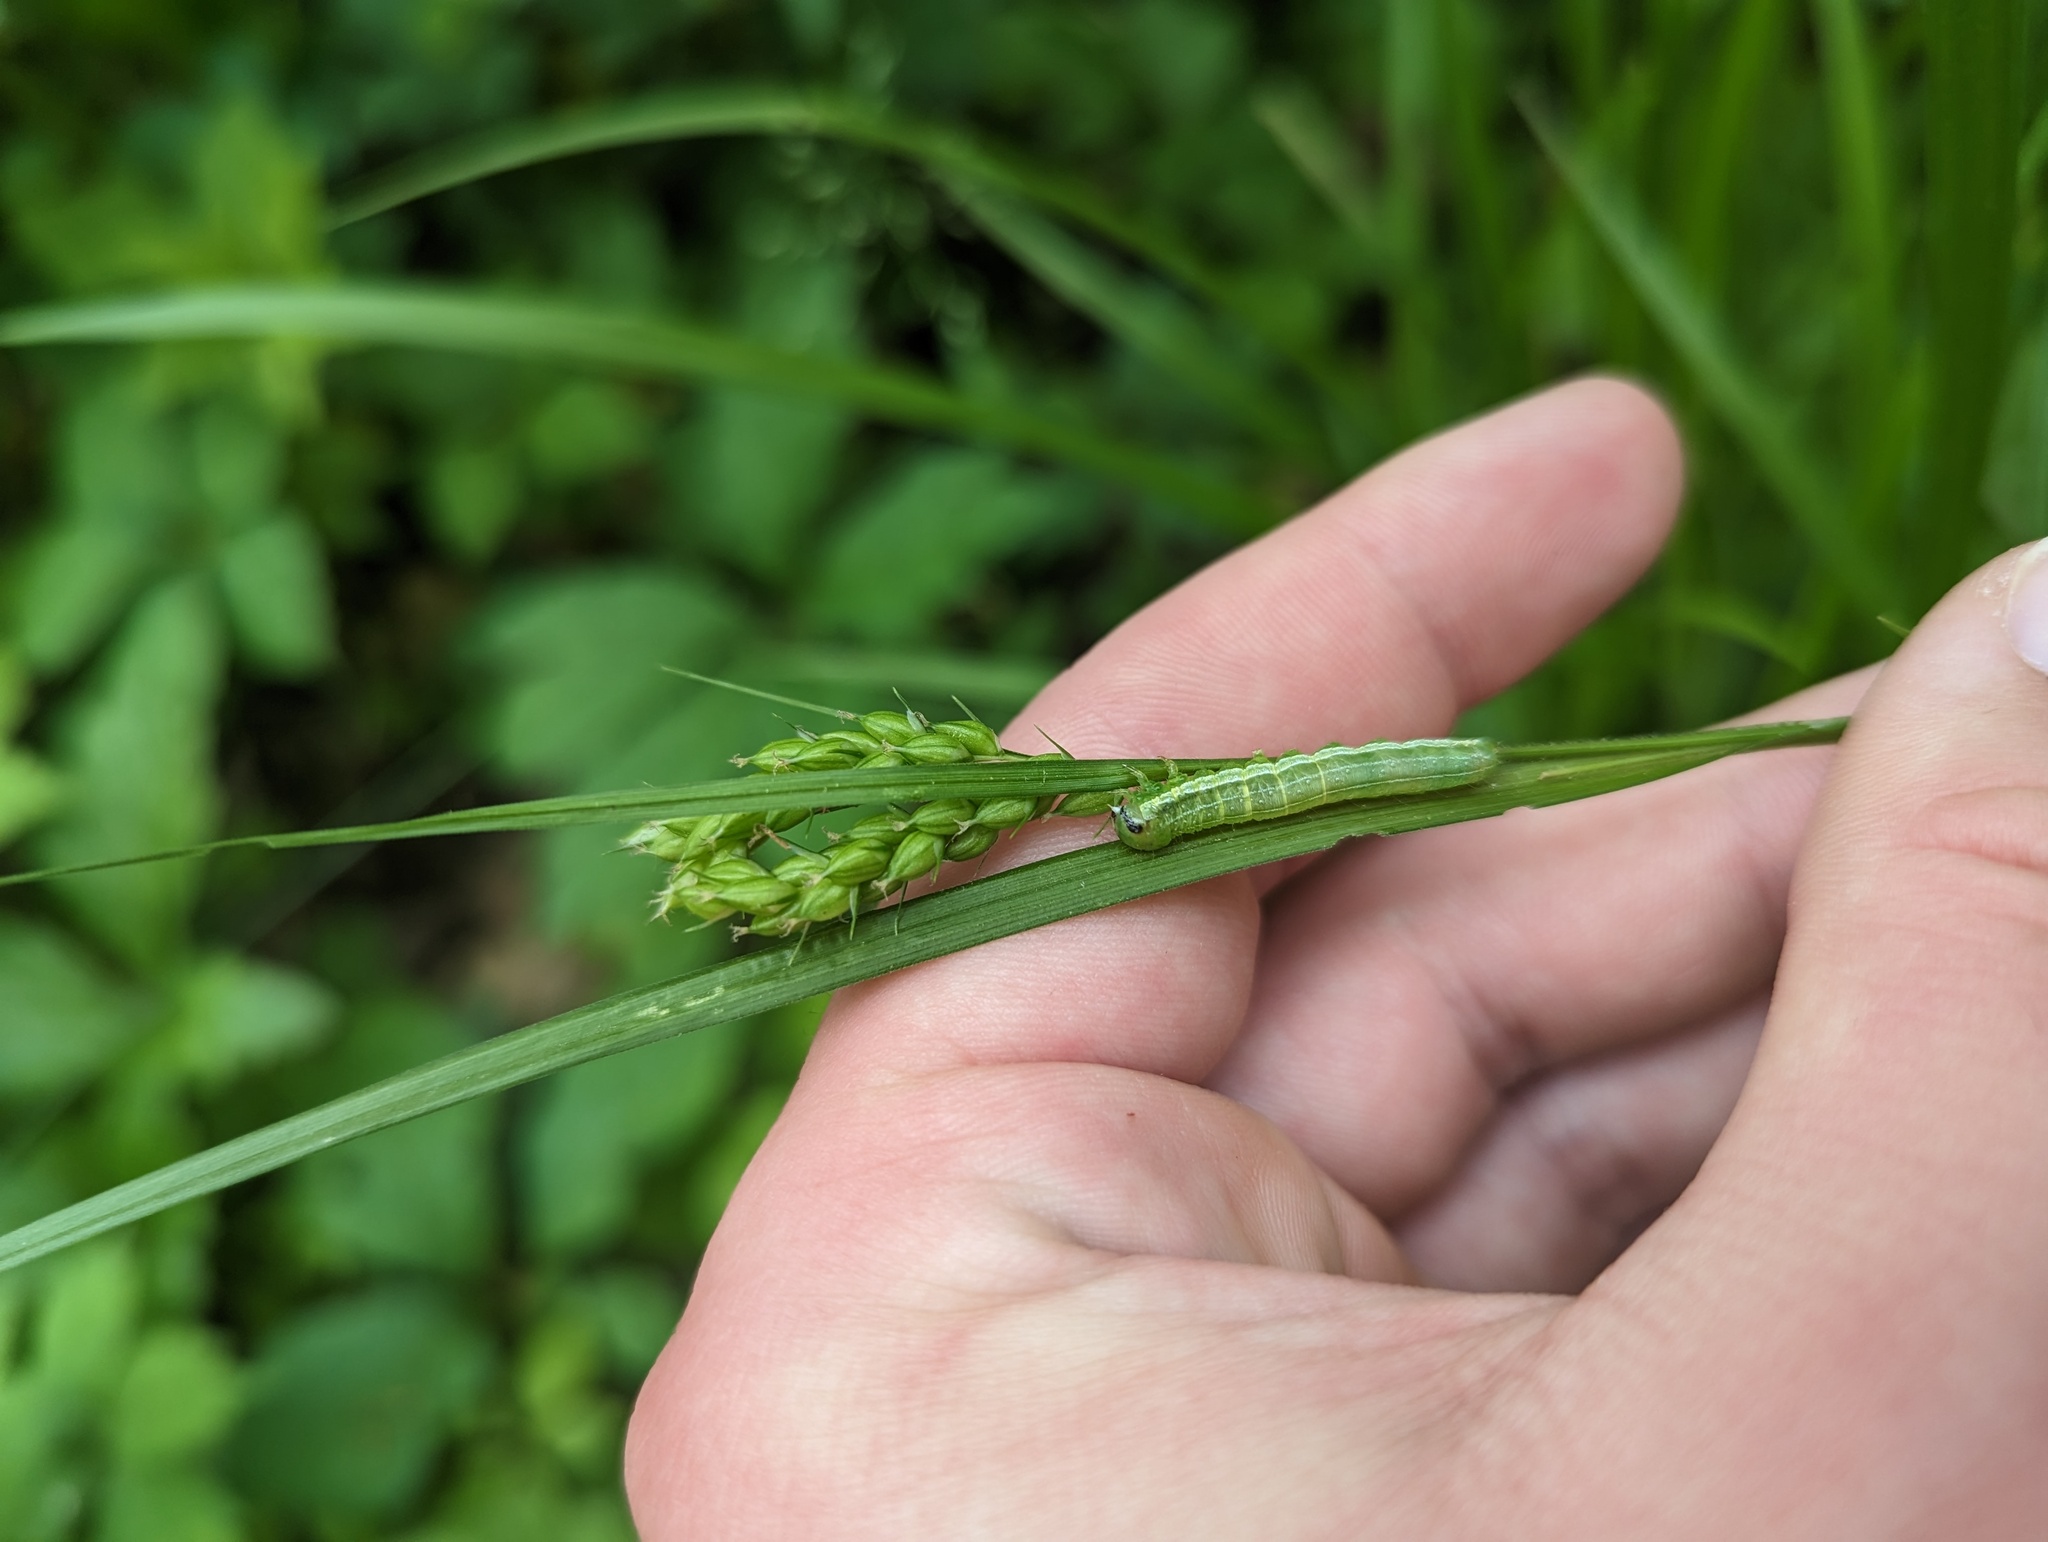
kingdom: Animalia
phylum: Arthropoda
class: Insecta
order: Lepidoptera
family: Noctuidae
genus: Loscopia
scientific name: Loscopia velata
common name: Veiled ear moth
